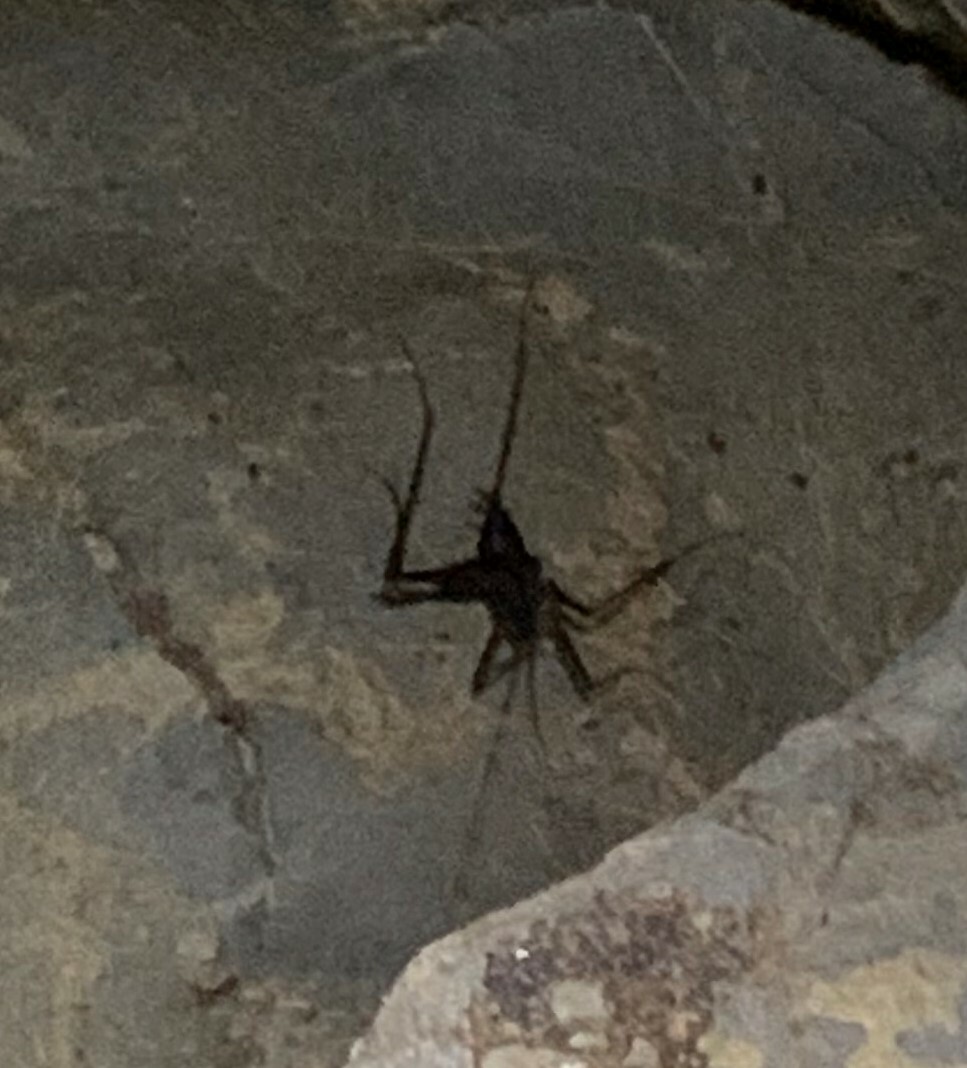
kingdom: Animalia
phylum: Arthropoda
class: Insecta
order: Orthoptera
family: Rhaphidophoridae
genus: Tropidischia
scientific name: Tropidischia xanthostoma
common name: Square-legged camel cricket
